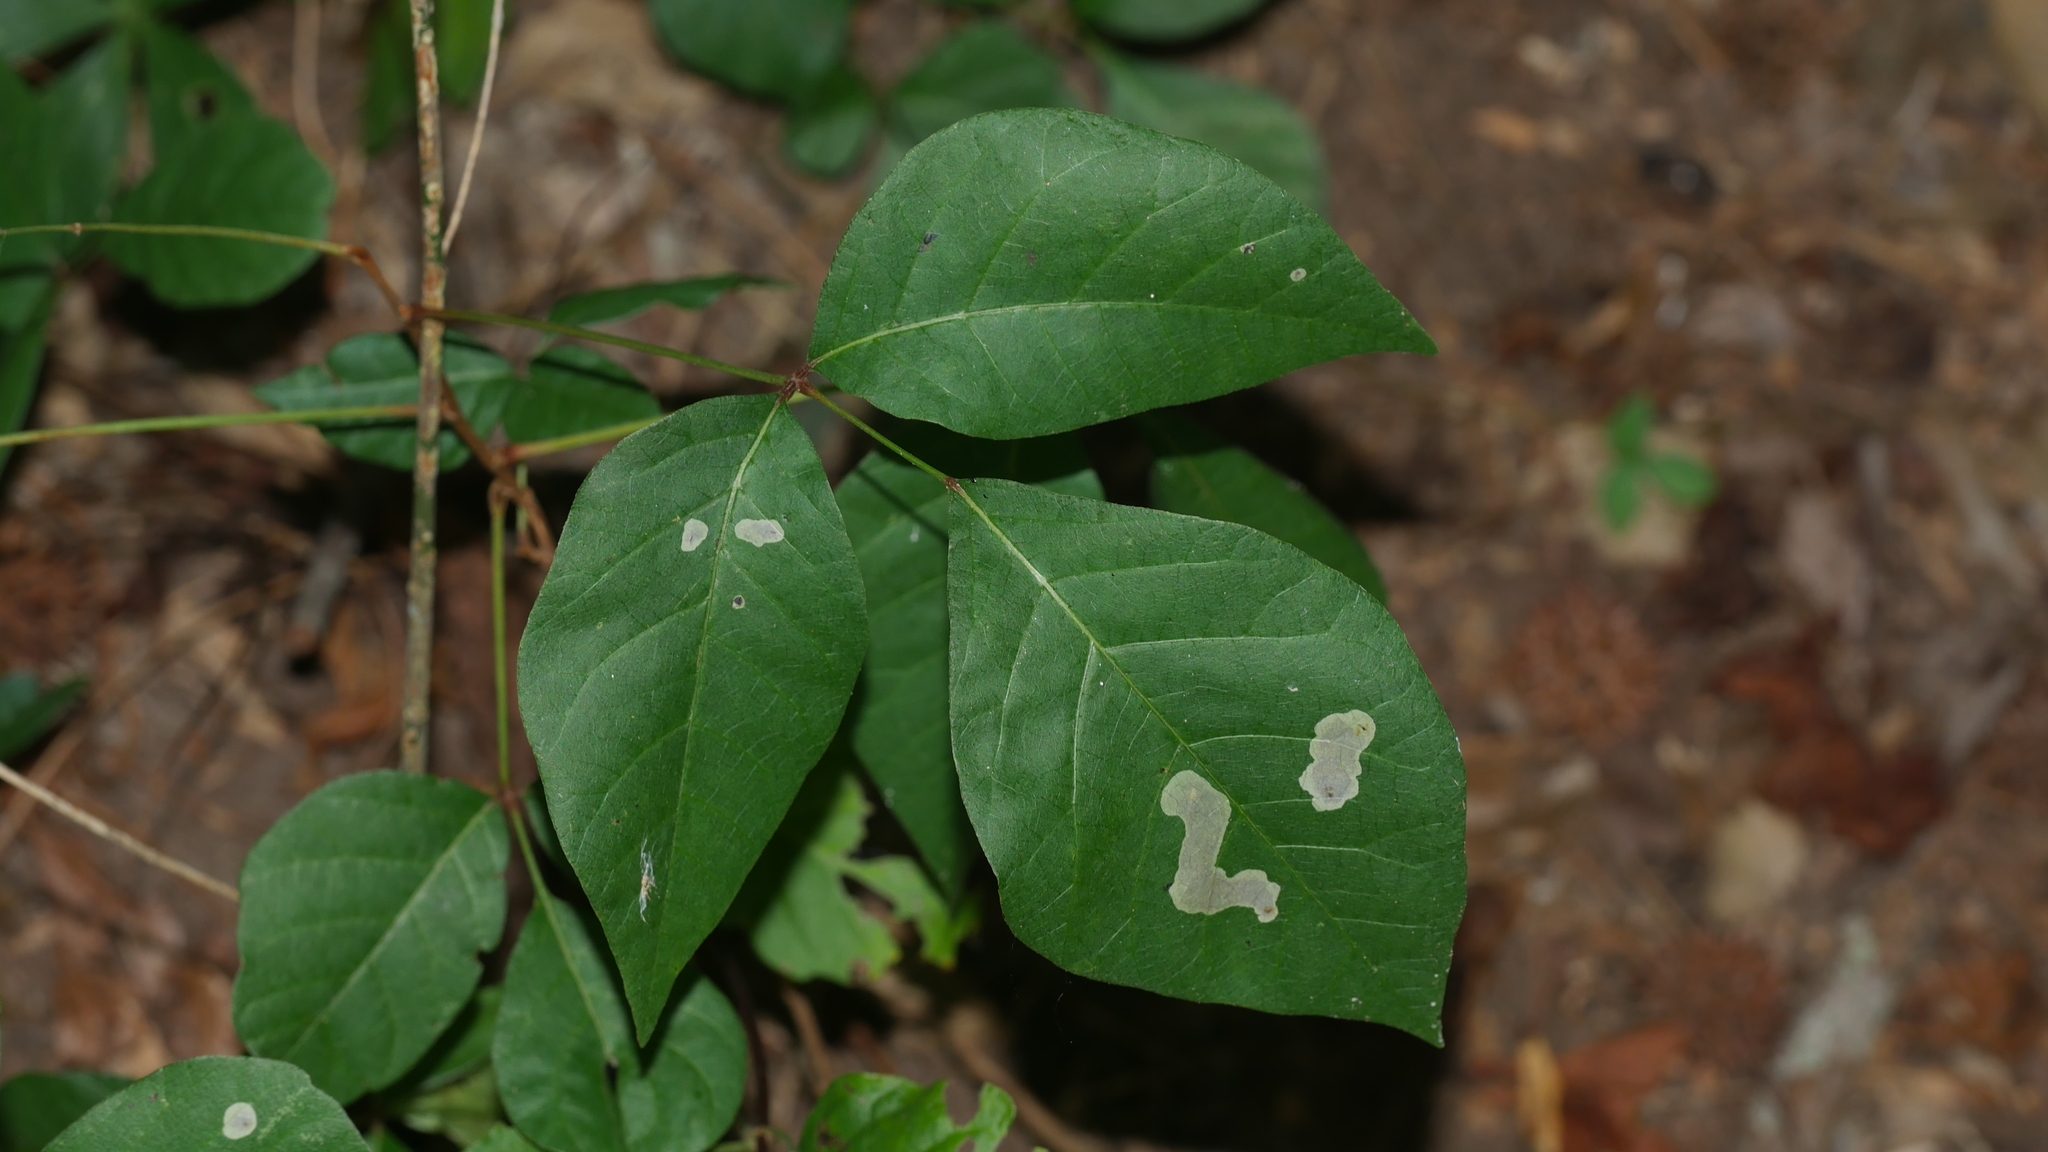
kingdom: Animalia
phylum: Arthropoda
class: Insecta
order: Lepidoptera
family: Gracillariidae
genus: Cameraria
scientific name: Cameraria guttifinitella
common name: Poison ivy leaf-miner moth
